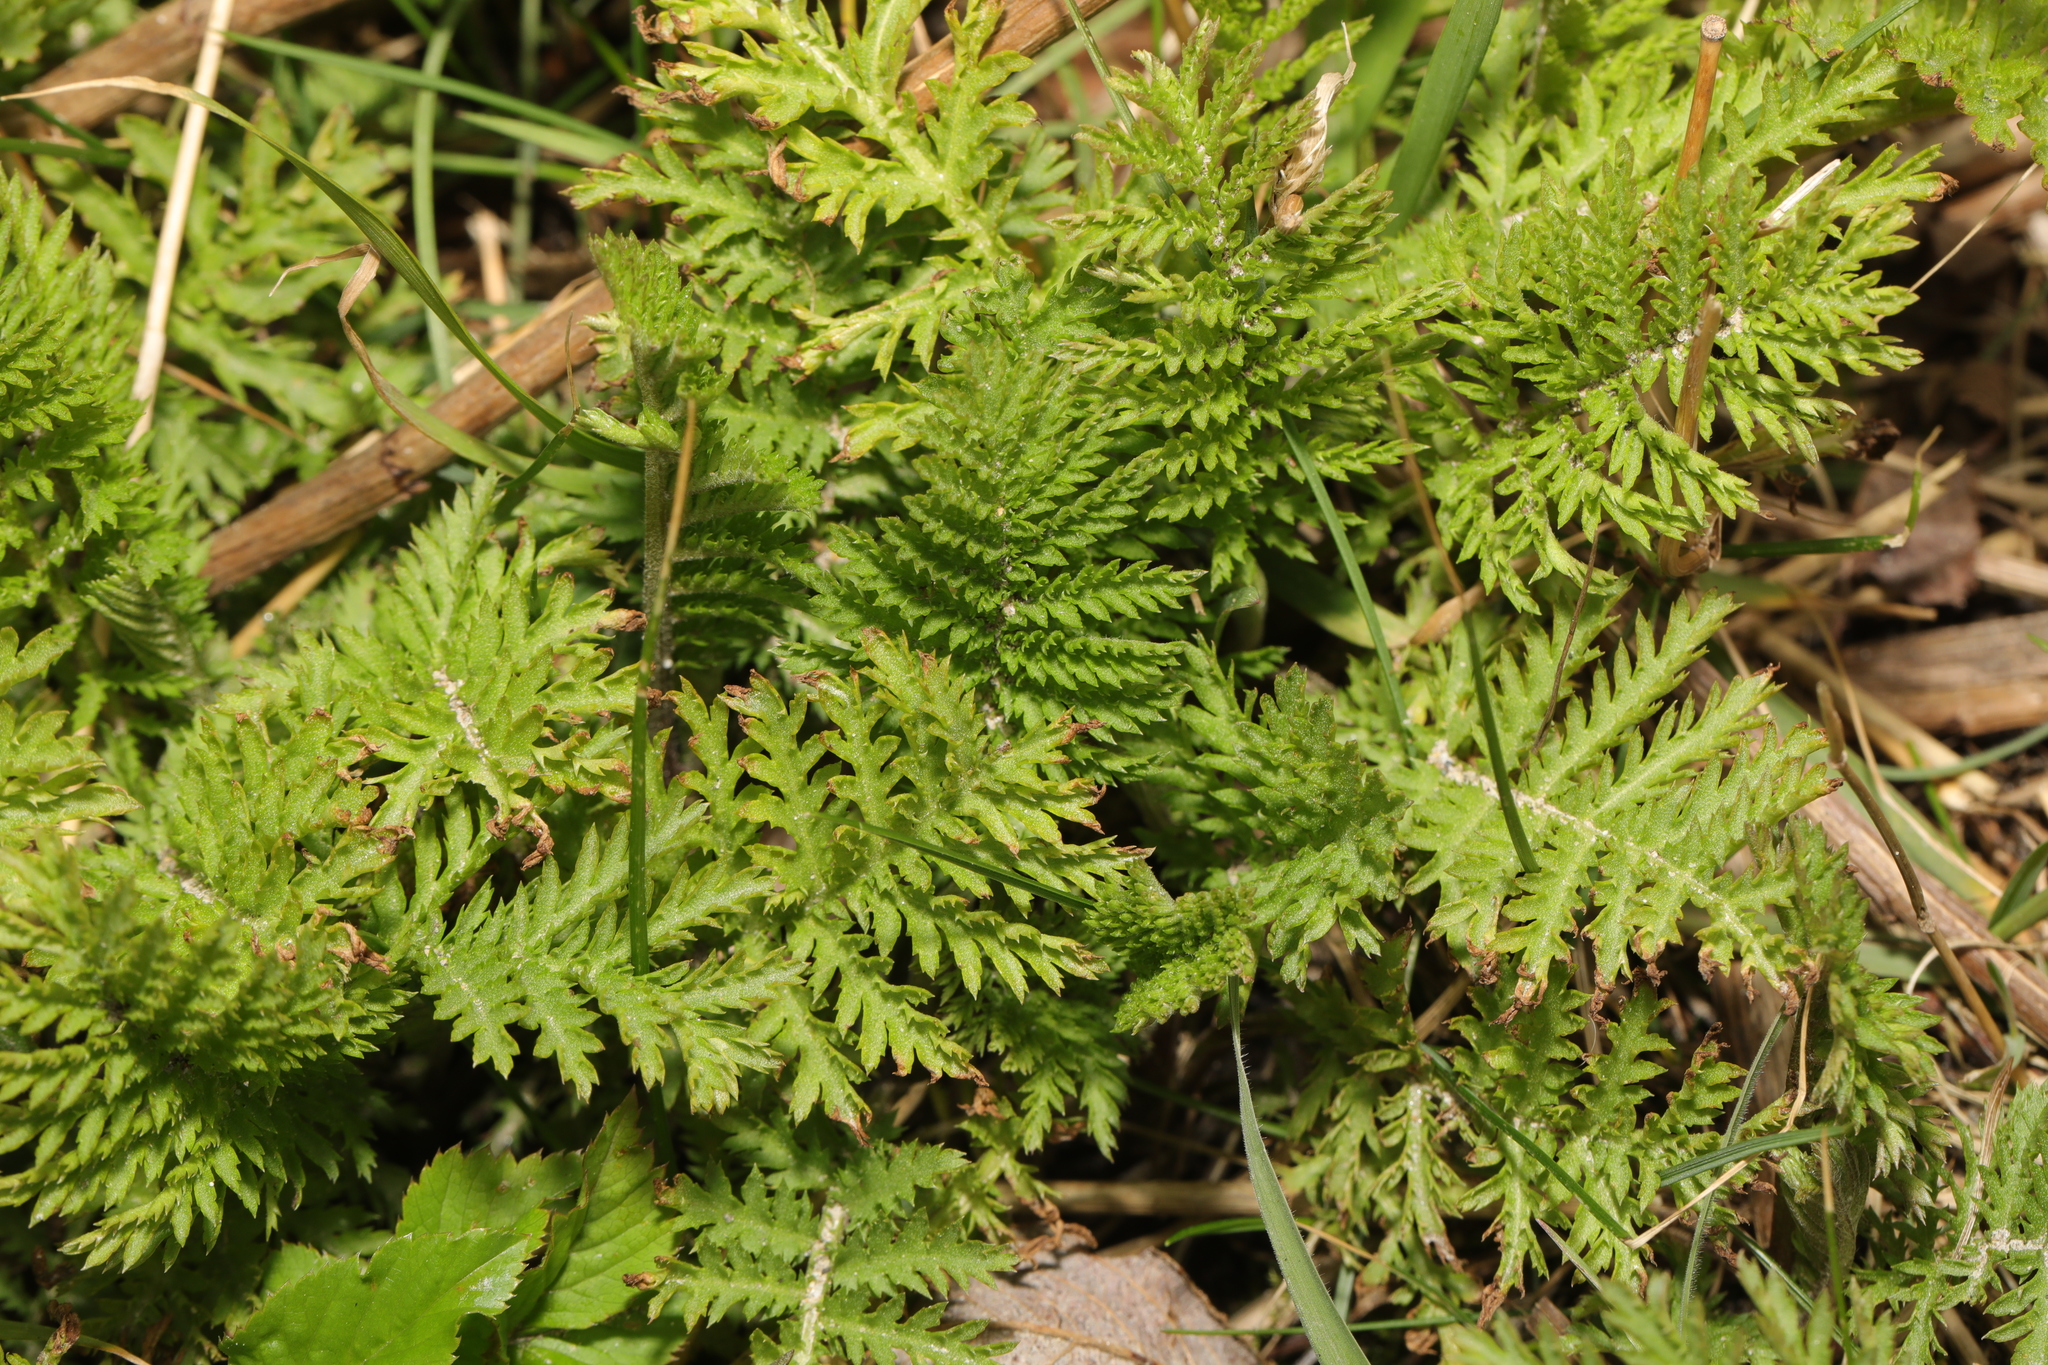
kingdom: Plantae
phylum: Tracheophyta
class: Magnoliopsida
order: Asterales
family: Asteraceae
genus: Tanacetum
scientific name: Tanacetum vulgare
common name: Common tansy
